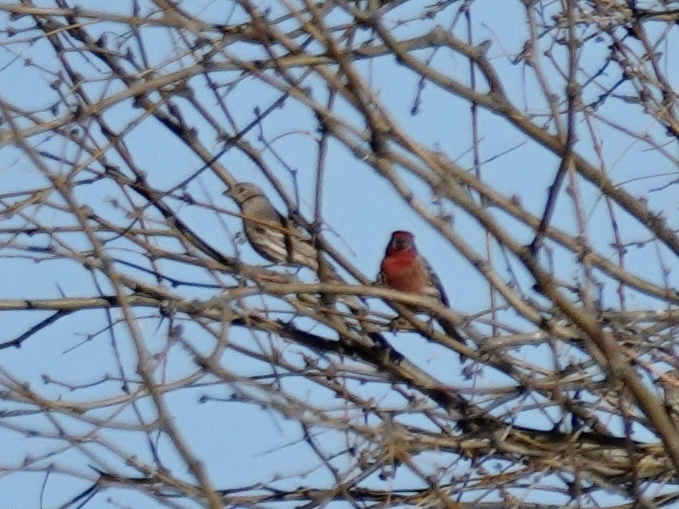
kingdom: Animalia
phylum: Chordata
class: Aves
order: Passeriformes
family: Fringillidae
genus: Haemorhous
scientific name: Haemorhous mexicanus
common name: House finch
